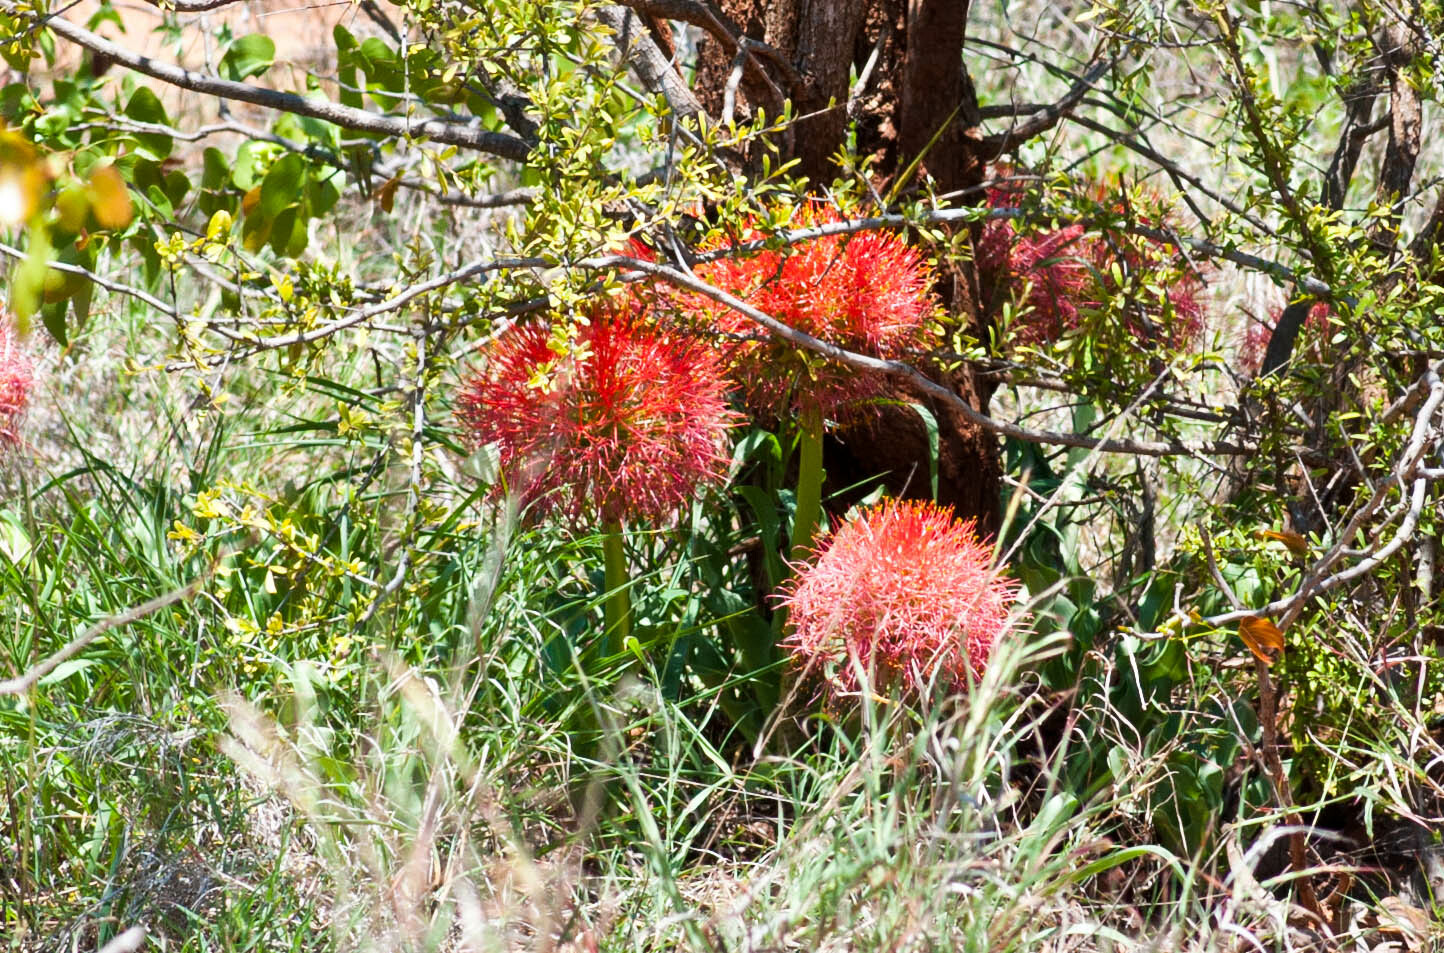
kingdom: Plantae
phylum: Tracheophyta
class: Liliopsida
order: Asparagales
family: Amaryllidaceae
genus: Scadoxus
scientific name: Scadoxus multiflorus
